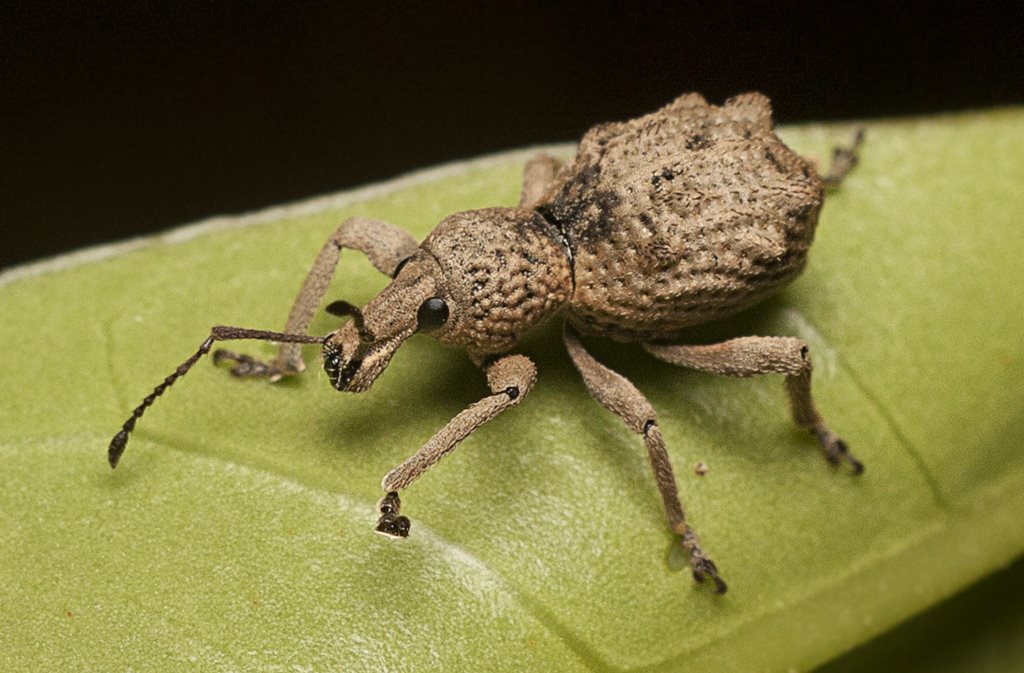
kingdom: Animalia
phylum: Arthropoda
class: Insecta
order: Coleoptera
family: Curculionidae
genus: Leptopius
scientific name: Leptopius tetraphysodes
